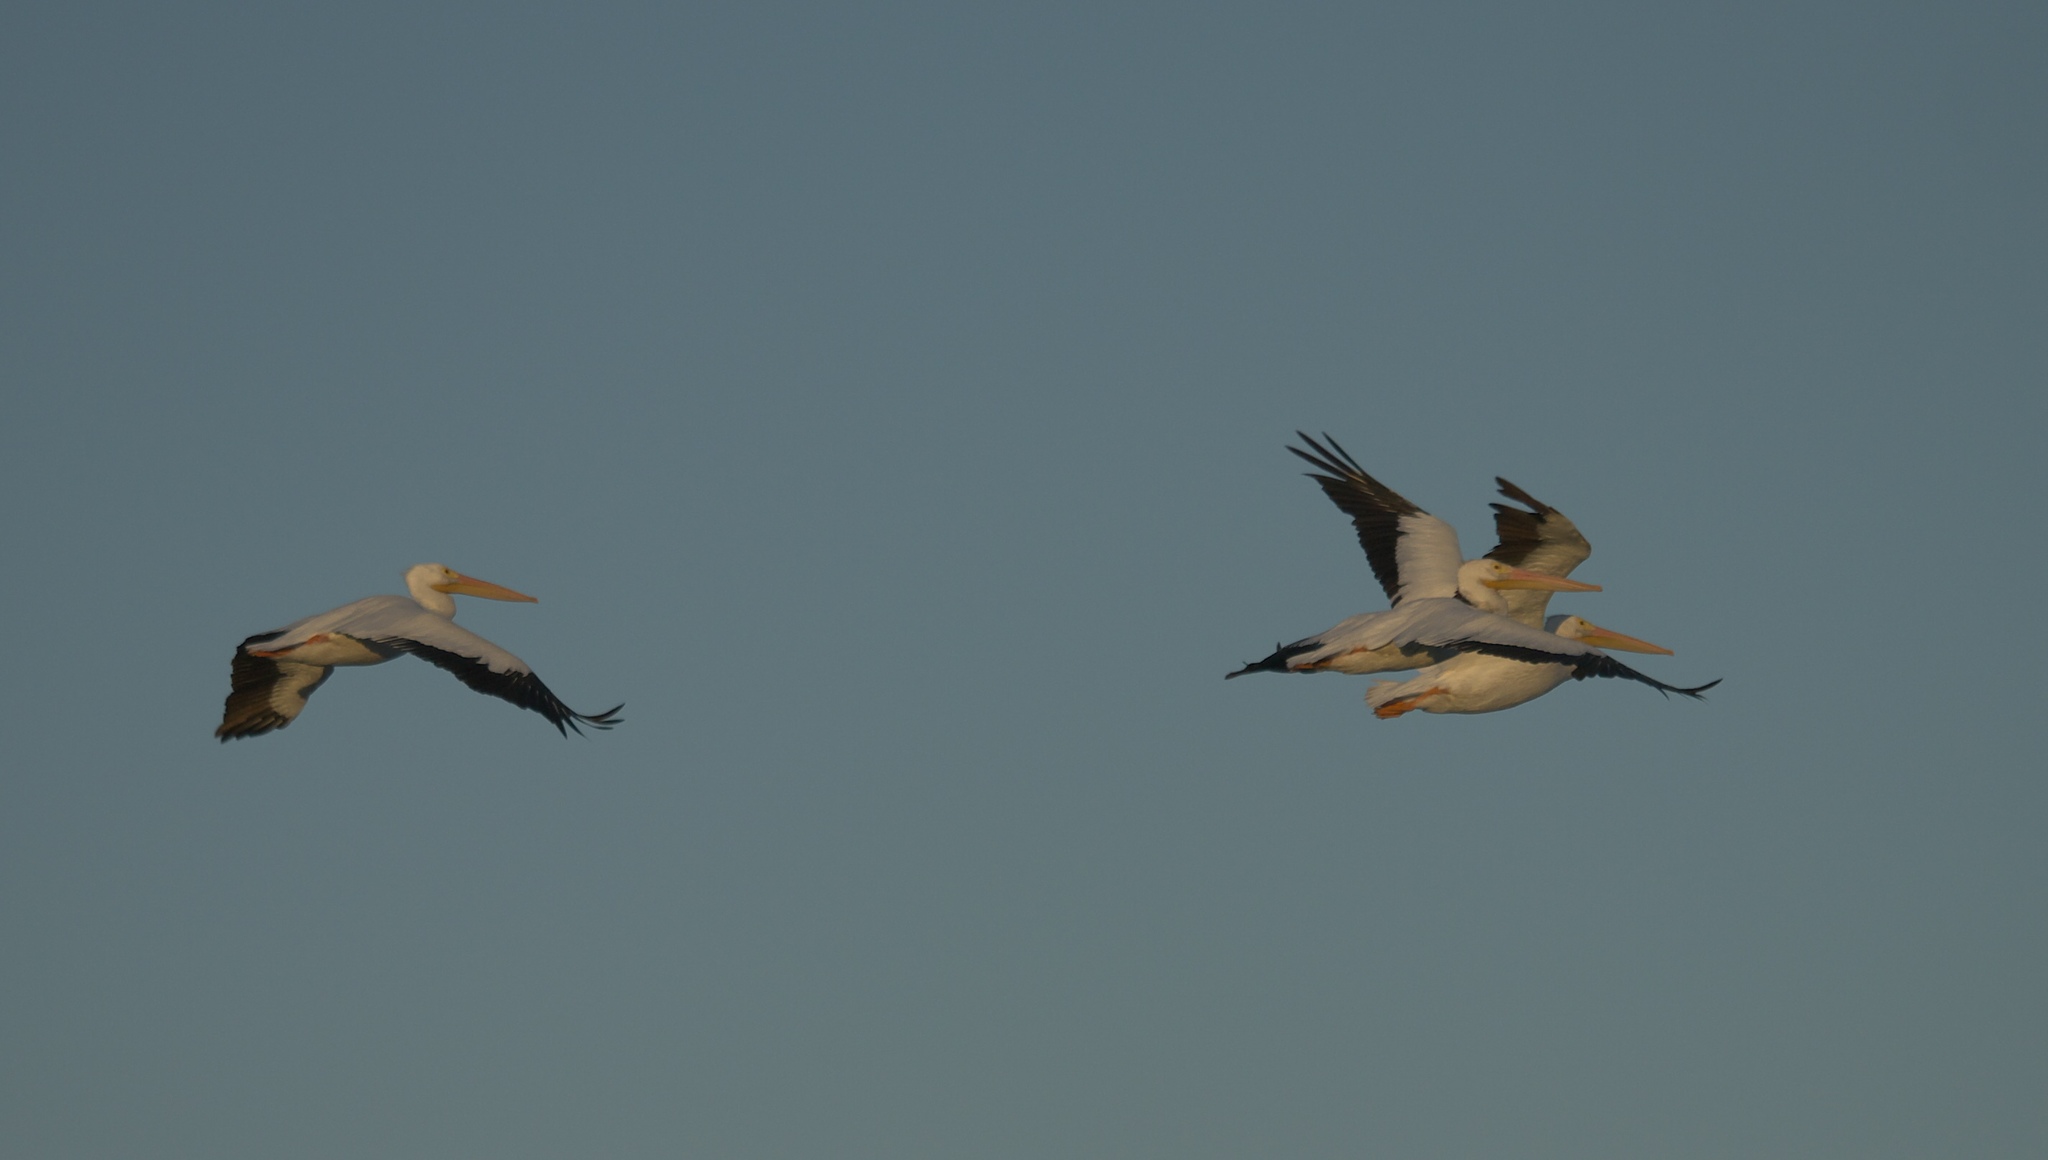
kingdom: Animalia
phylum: Chordata
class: Aves
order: Pelecaniformes
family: Pelecanidae
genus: Pelecanus
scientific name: Pelecanus erythrorhynchos
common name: American white pelican
